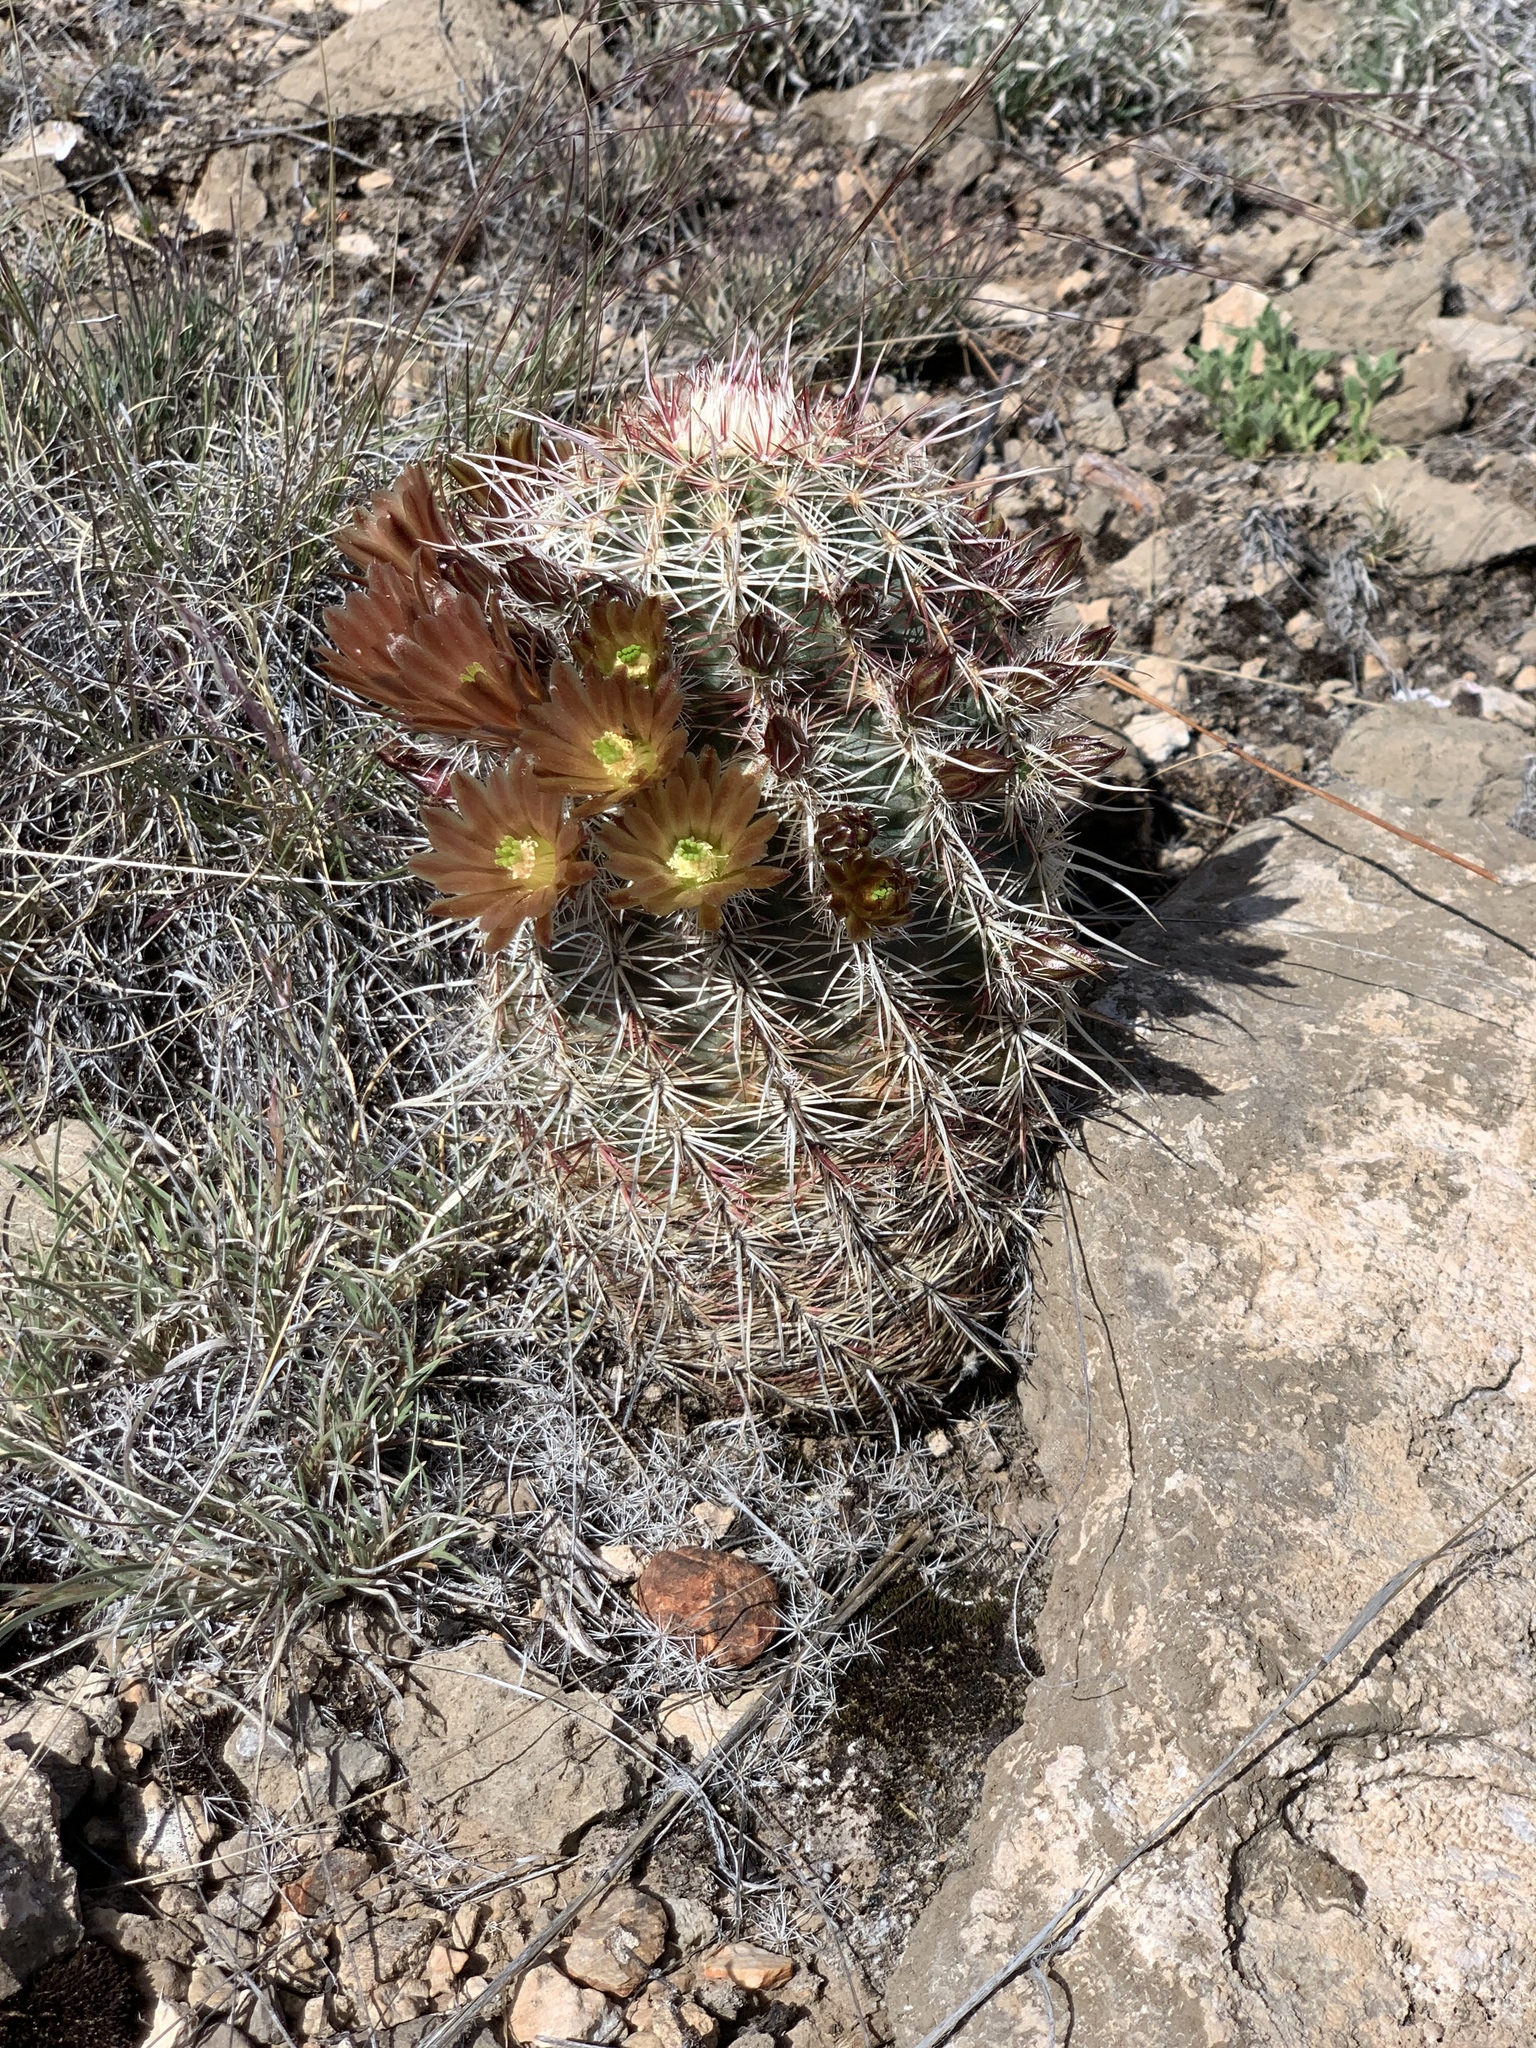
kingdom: Plantae
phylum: Tracheophyta
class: Magnoliopsida
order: Caryophyllales
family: Cactaceae
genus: Echinocereus
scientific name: Echinocereus viridiflorus
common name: Nylon hedgehog cactus
